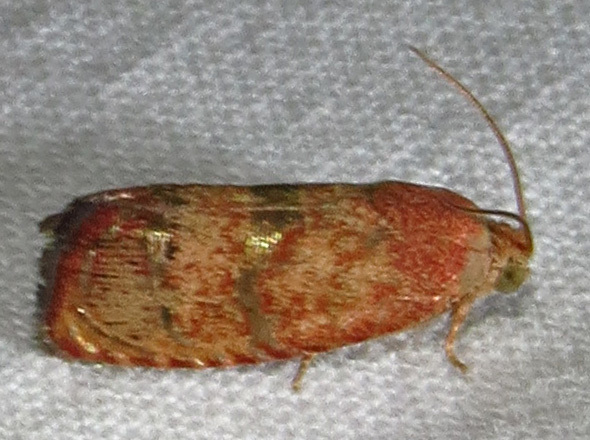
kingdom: Animalia
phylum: Arthropoda
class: Insecta
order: Lepidoptera
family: Tortricidae
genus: Cydia
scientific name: Cydia latiferreana
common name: Filbertworm moth
